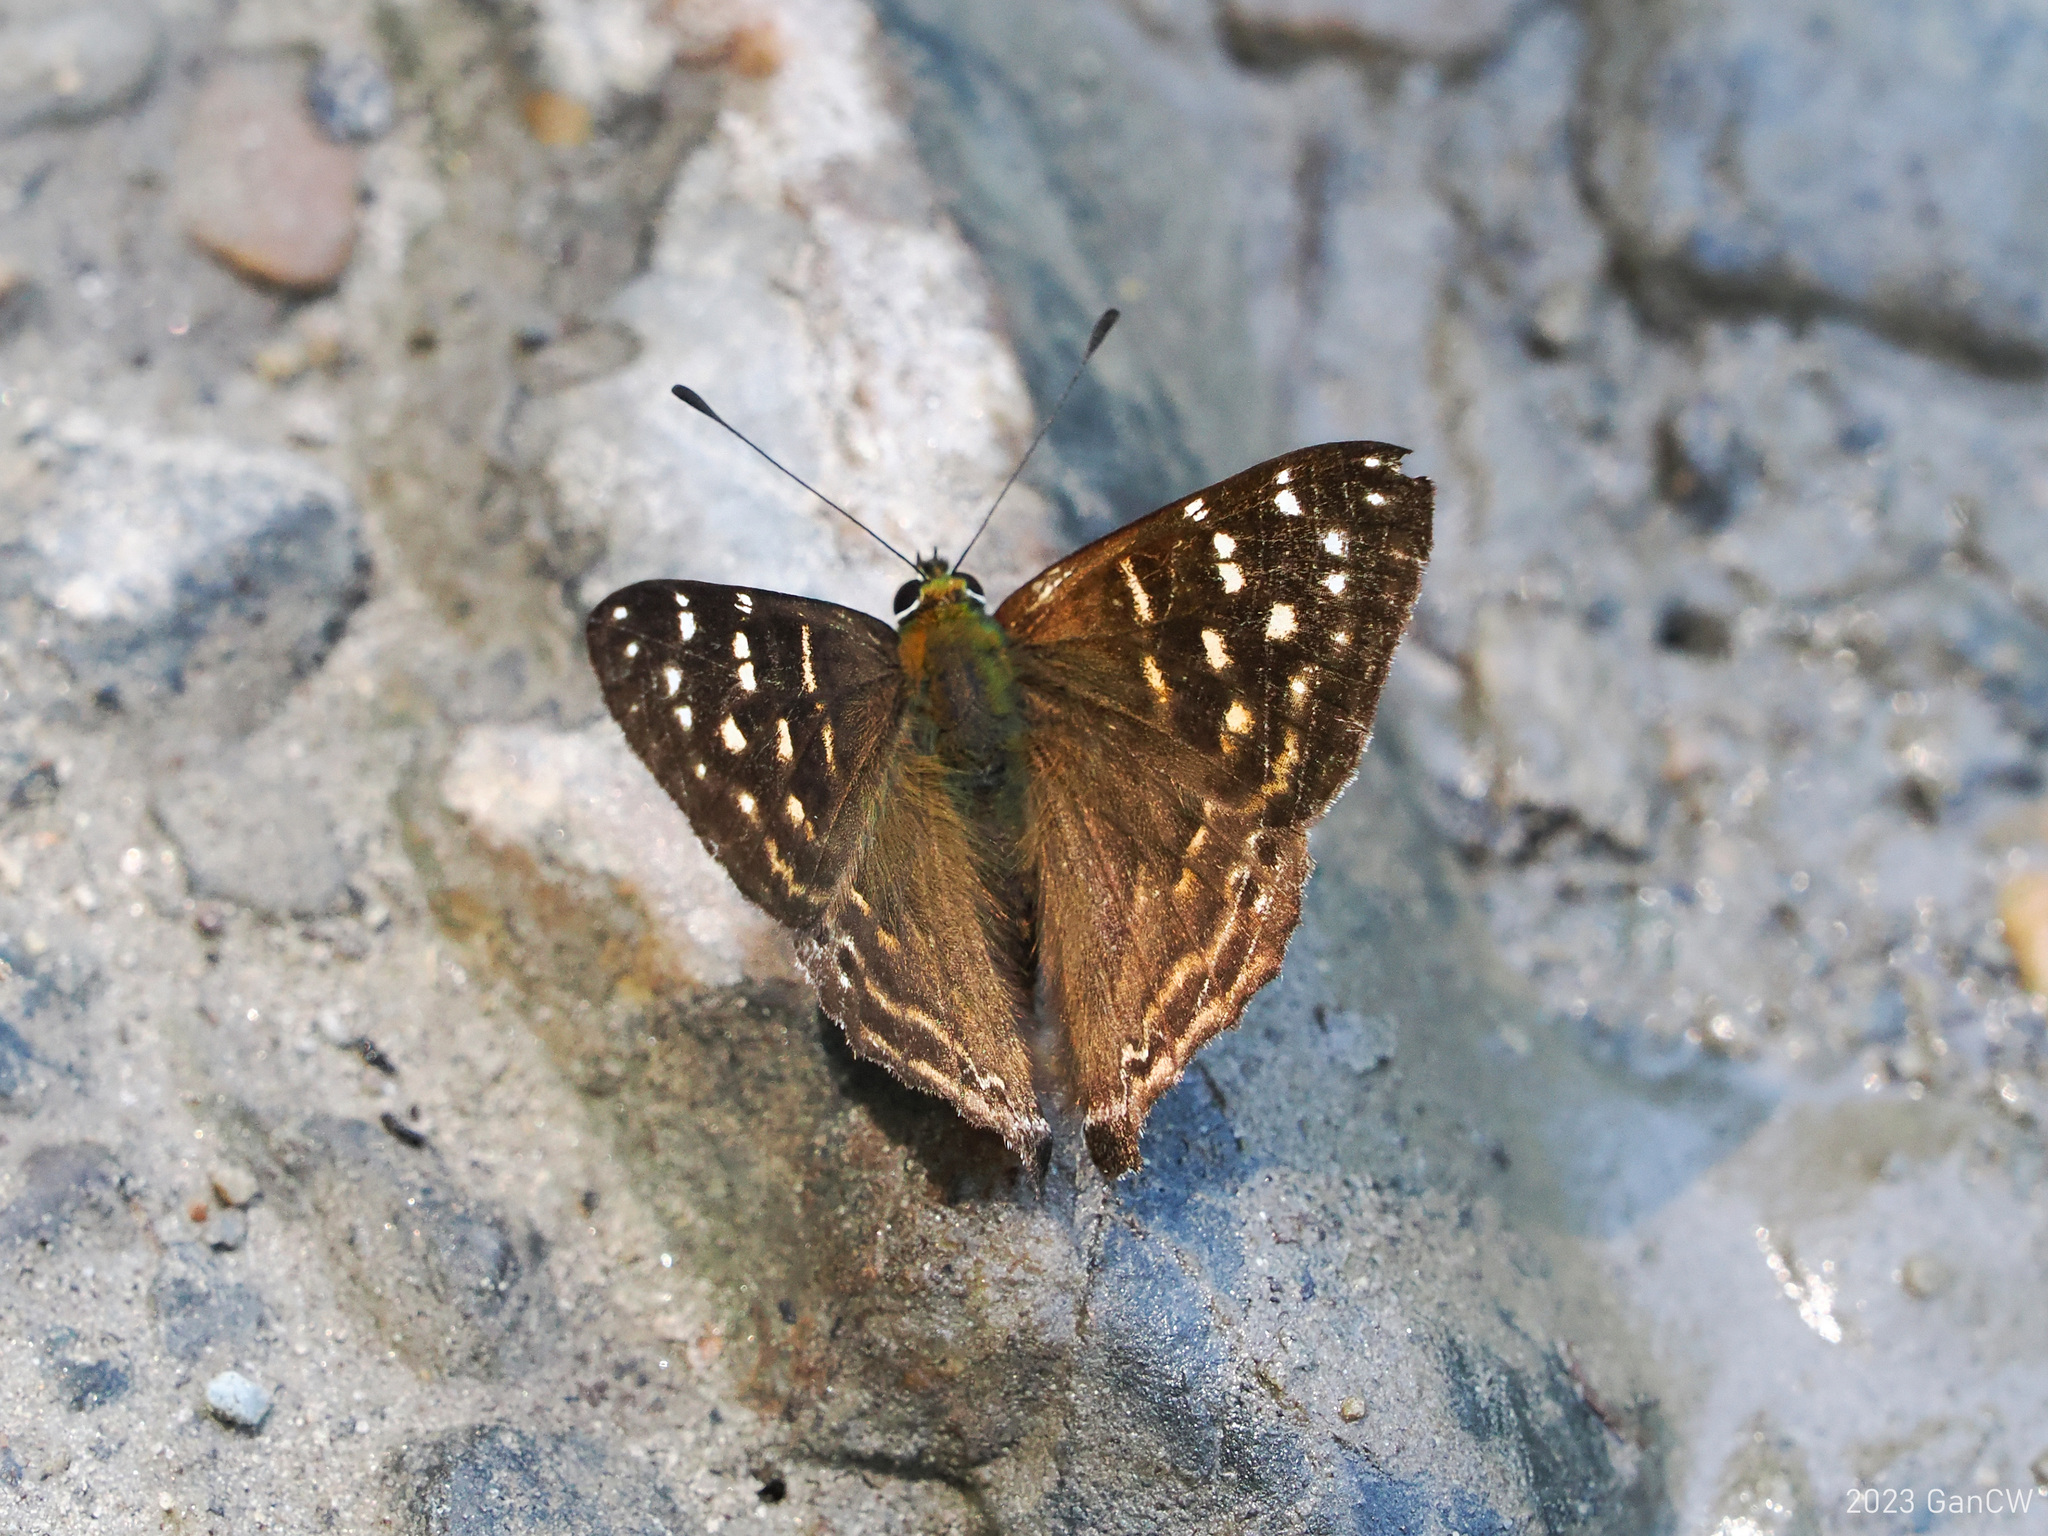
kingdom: Animalia
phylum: Arthropoda
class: Insecta
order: Lepidoptera
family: Lycaenidae
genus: Dodona
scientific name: Dodona dipoea
